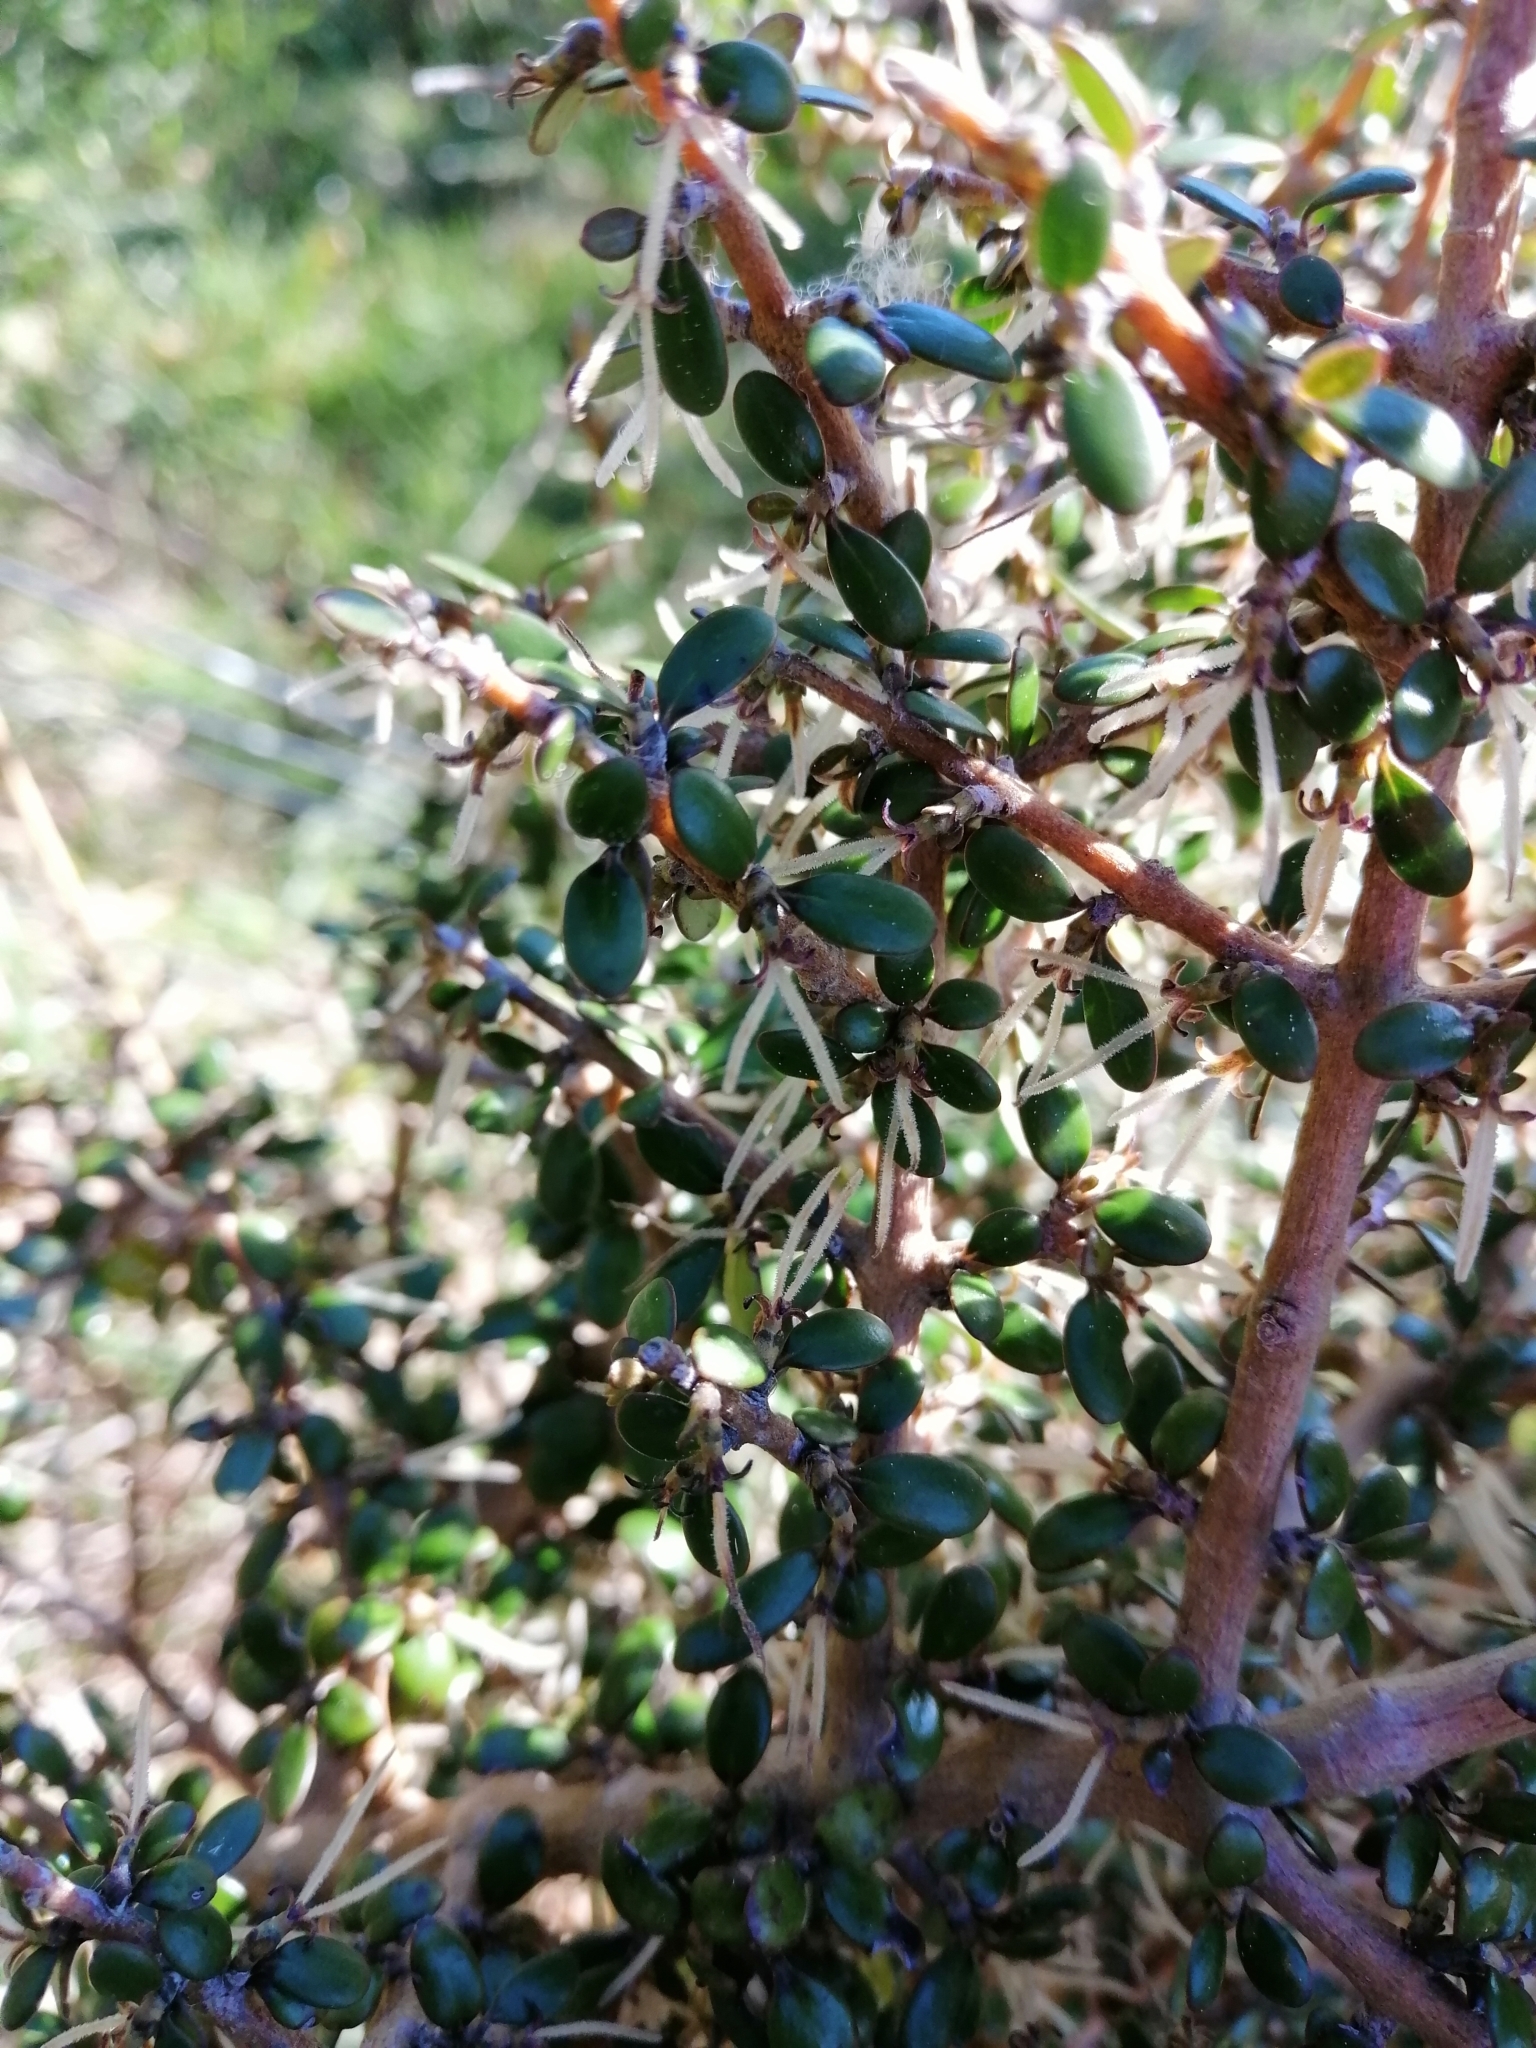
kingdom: Plantae
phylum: Tracheophyta
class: Magnoliopsida
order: Gentianales
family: Rubiaceae
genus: Coprosma
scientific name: Coprosma propinqua
